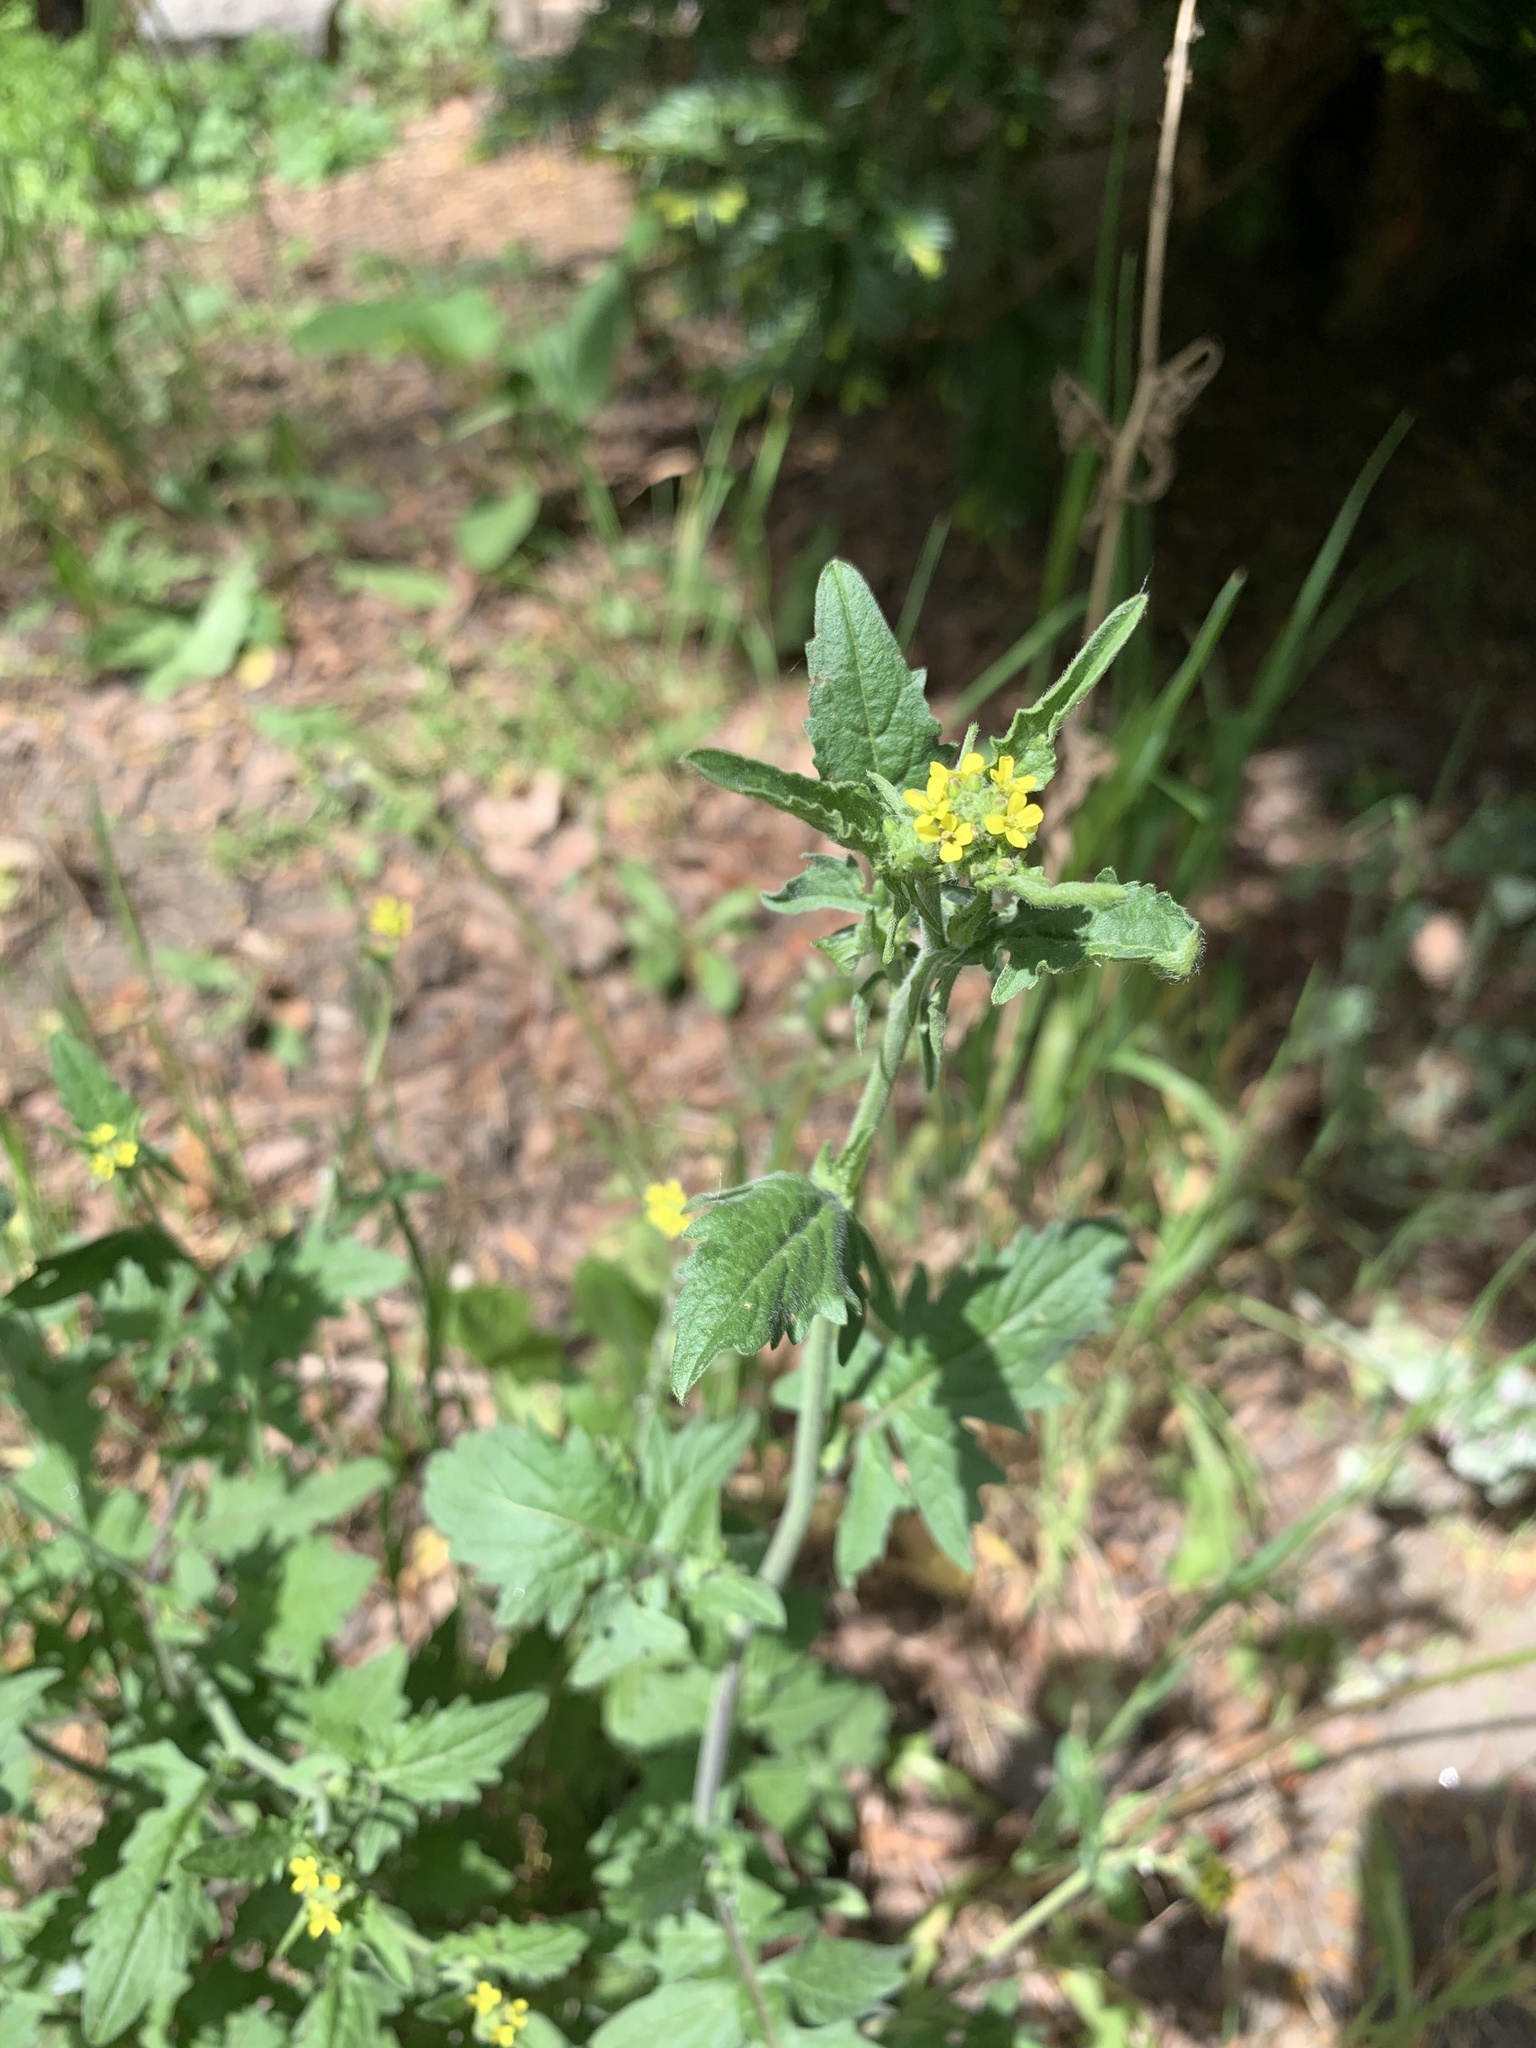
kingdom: Plantae
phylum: Tracheophyta
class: Magnoliopsida
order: Brassicales
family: Brassicaceae
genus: Sisymbrium
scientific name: Sisymbrium officinale
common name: Hedge mustard
